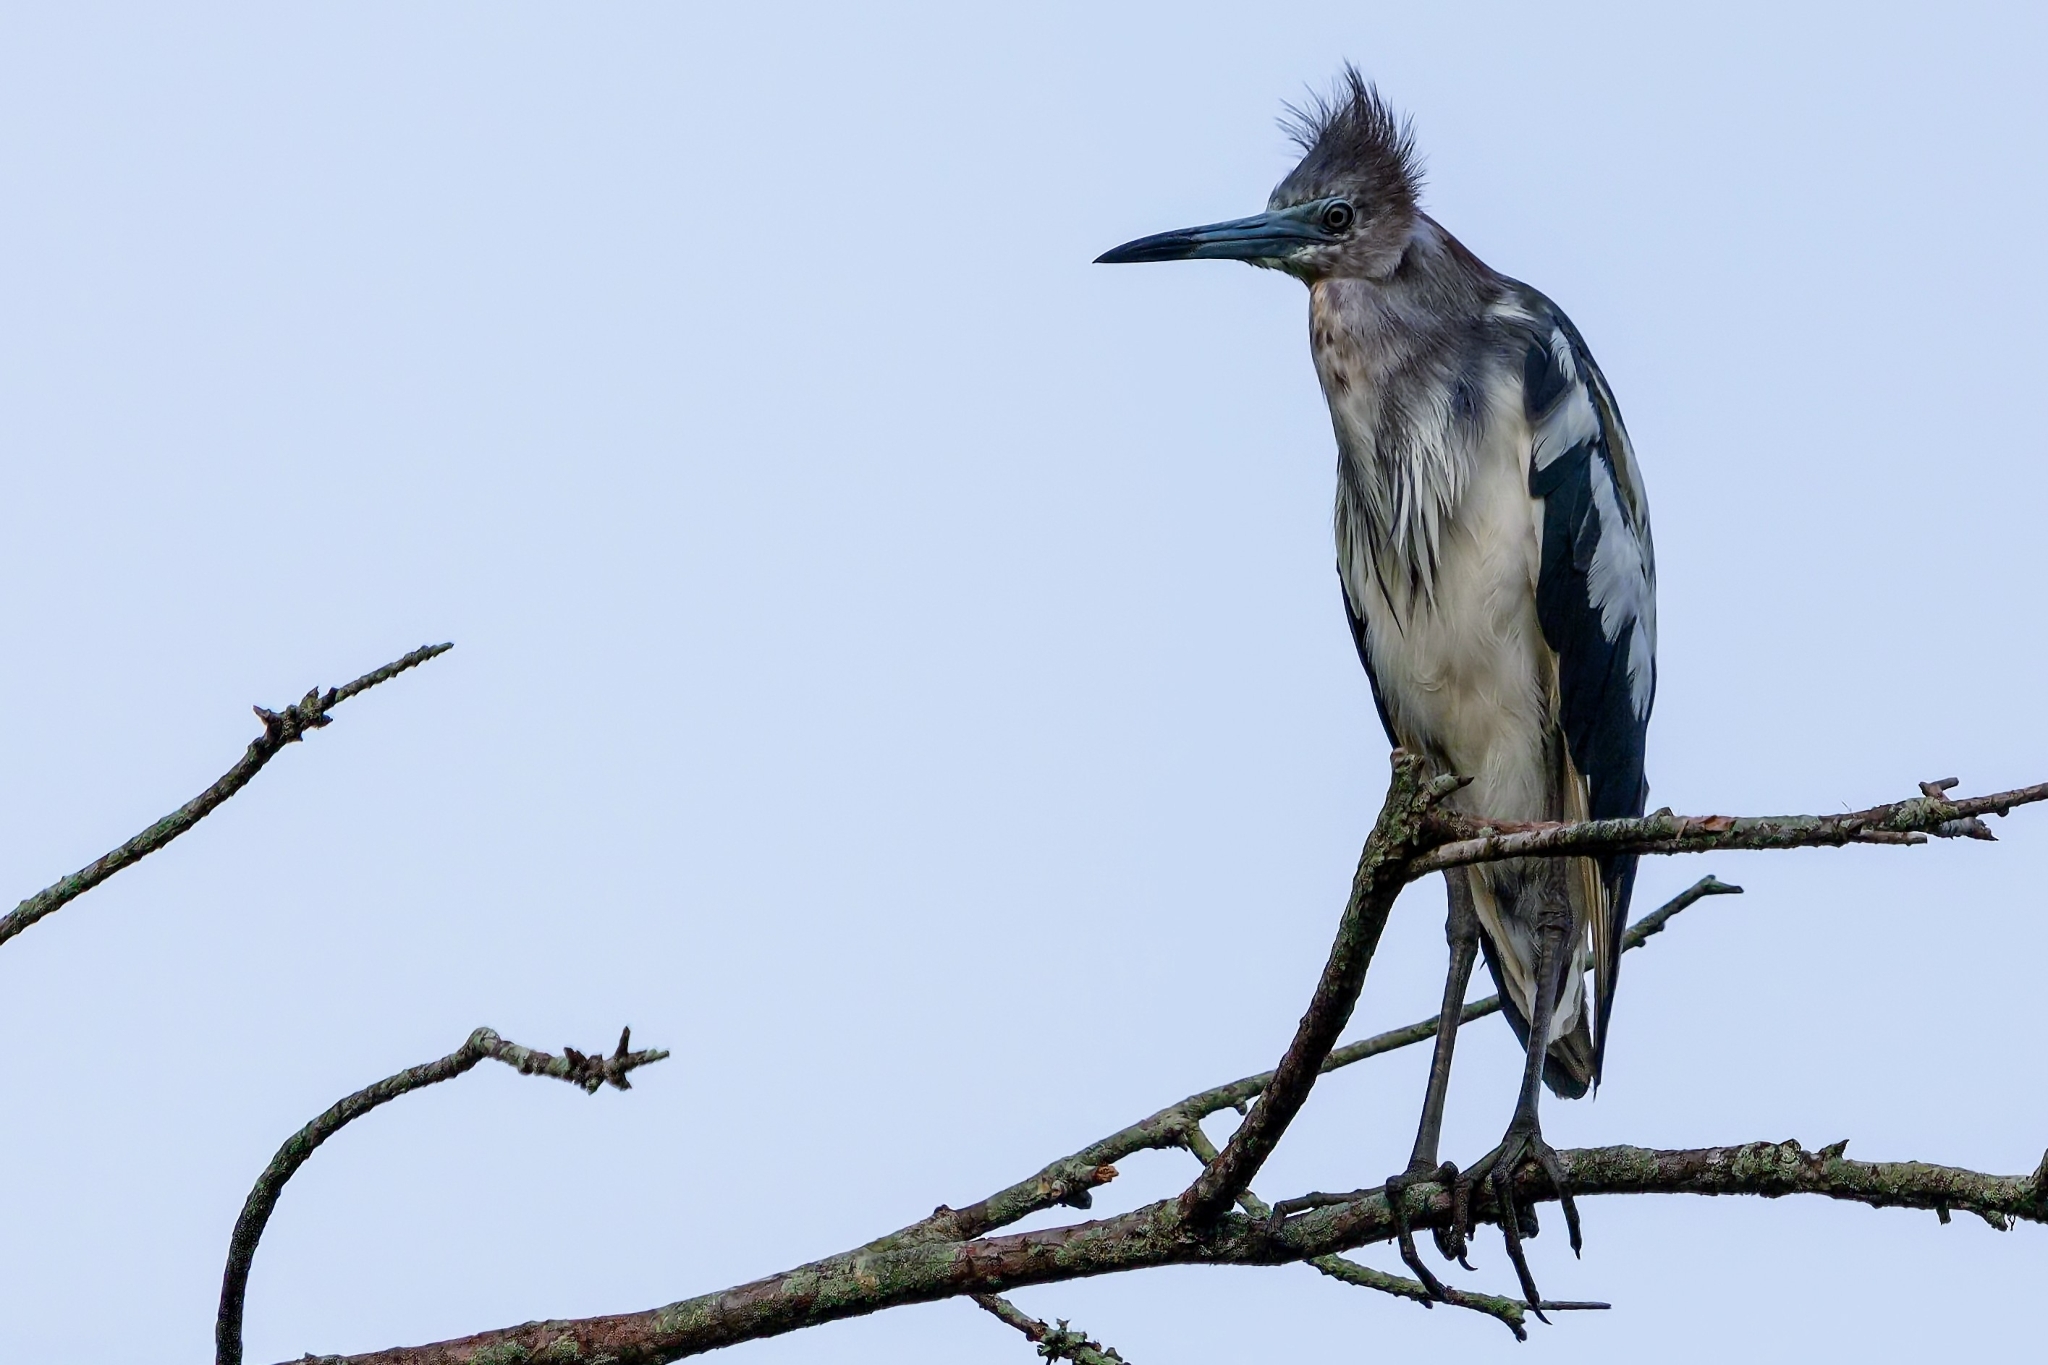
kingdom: Animalia
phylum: Chordata
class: Aves
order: Pelecaniformes
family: Ardeidae
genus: Egretta
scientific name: Egretta caerulea
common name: Little blue heron
